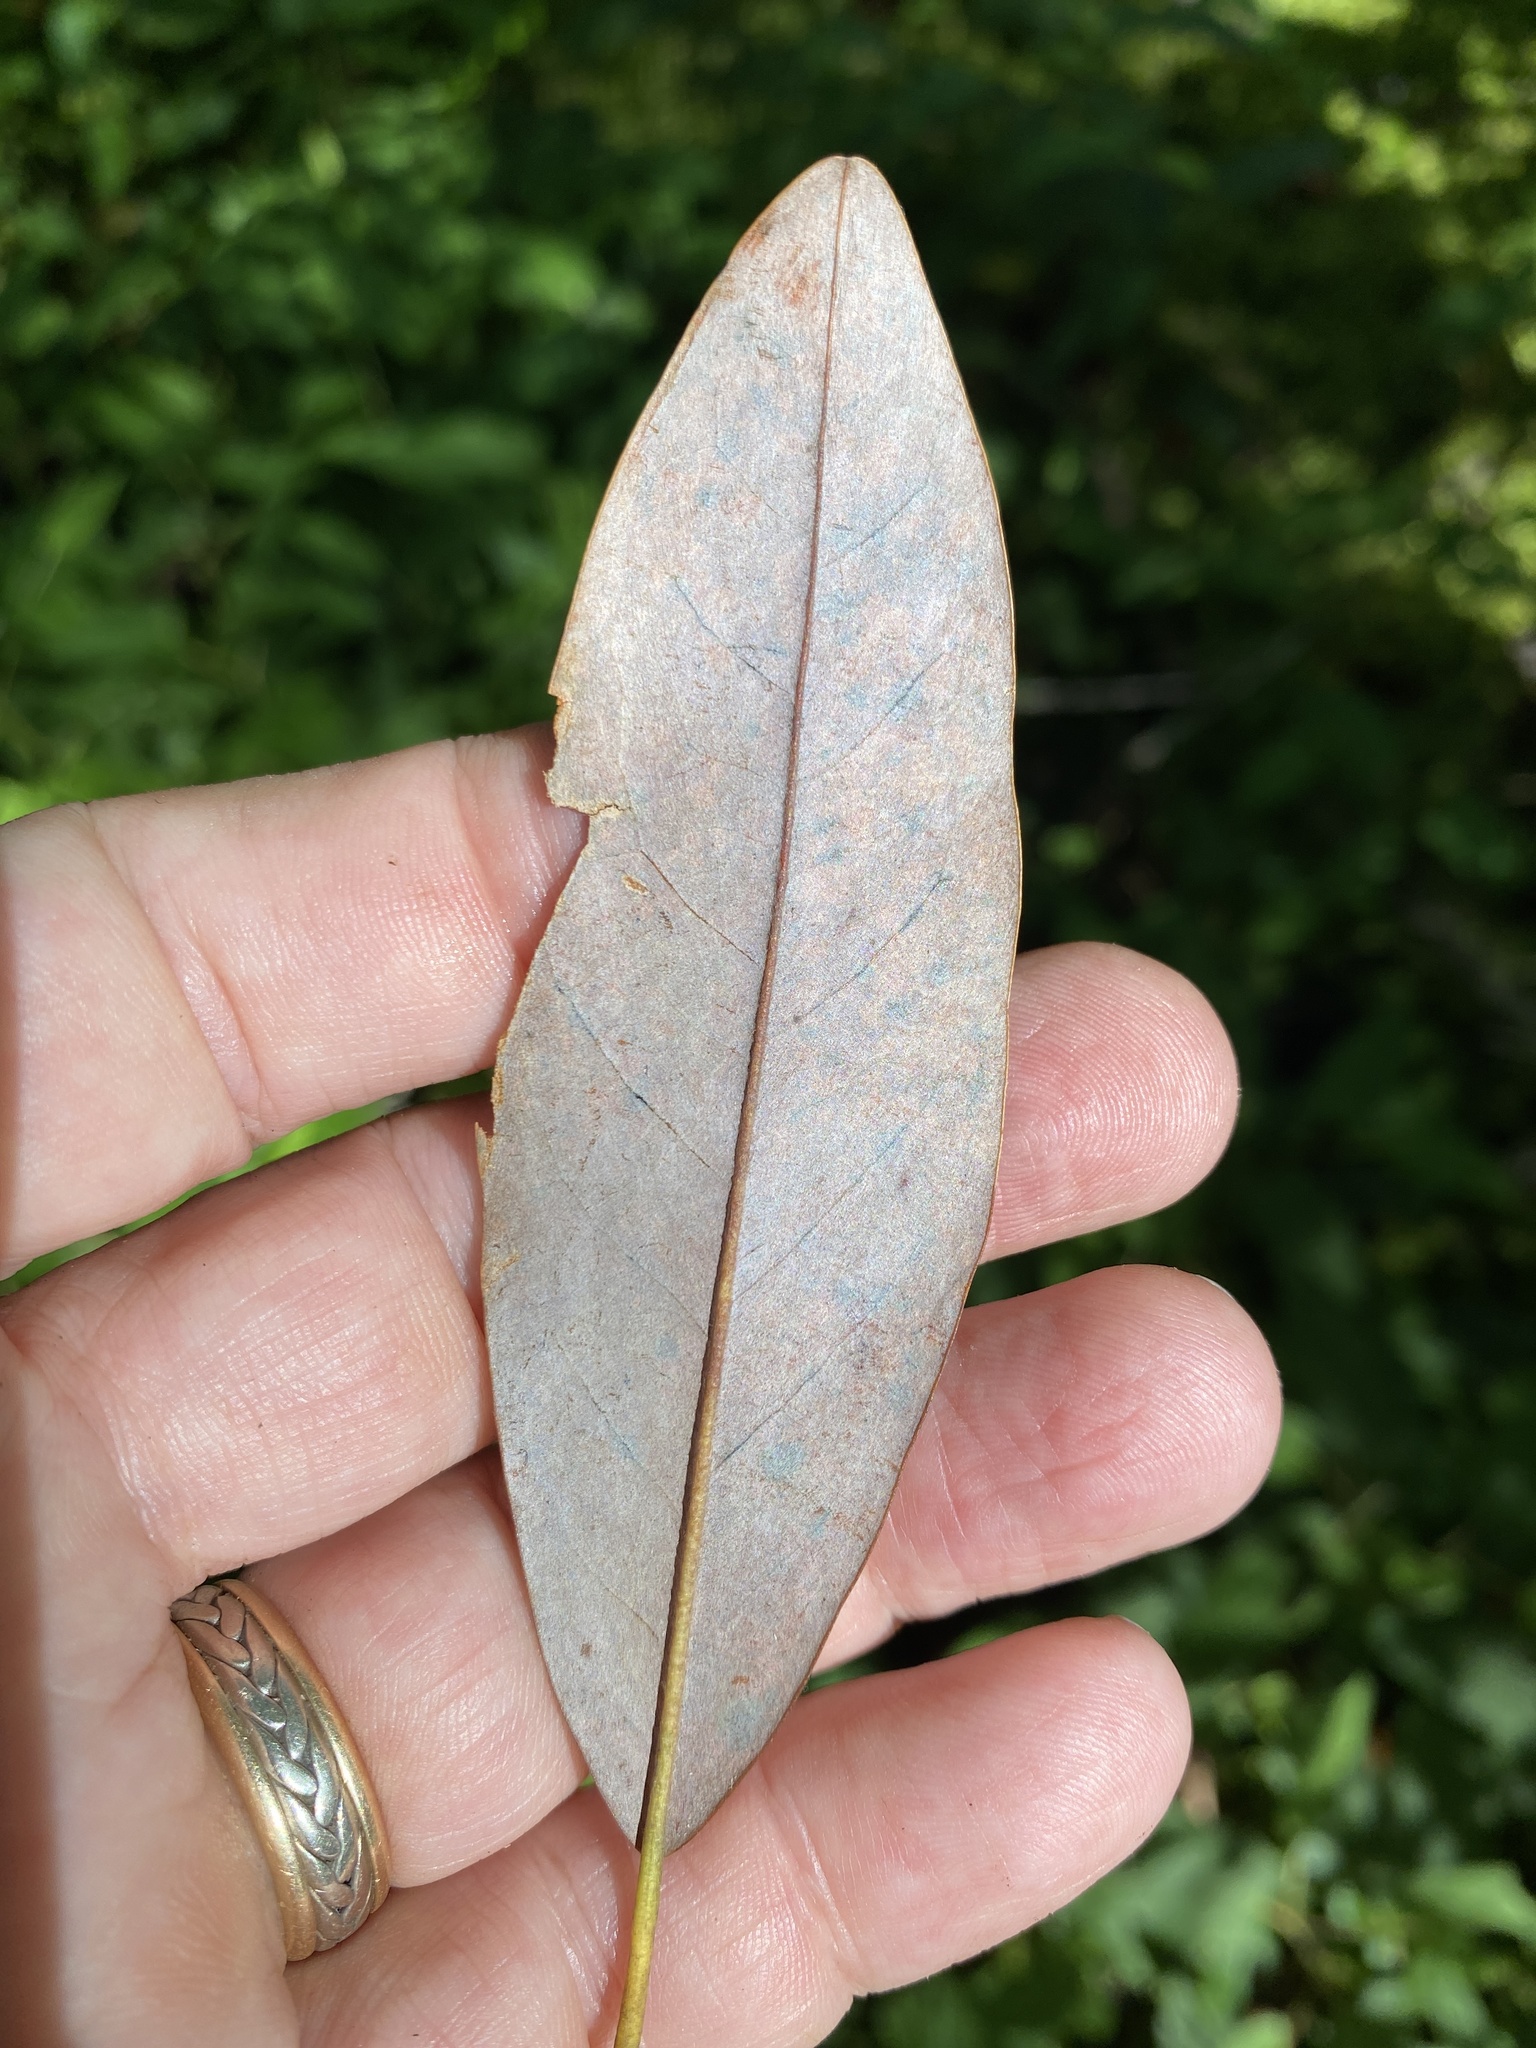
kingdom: Plantae
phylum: Tracheophyta
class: Magnoliopsida
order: Magnoliales
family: Magnoliaceae
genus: Magnolia
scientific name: Magnolia virginiana
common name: Swamp bay
